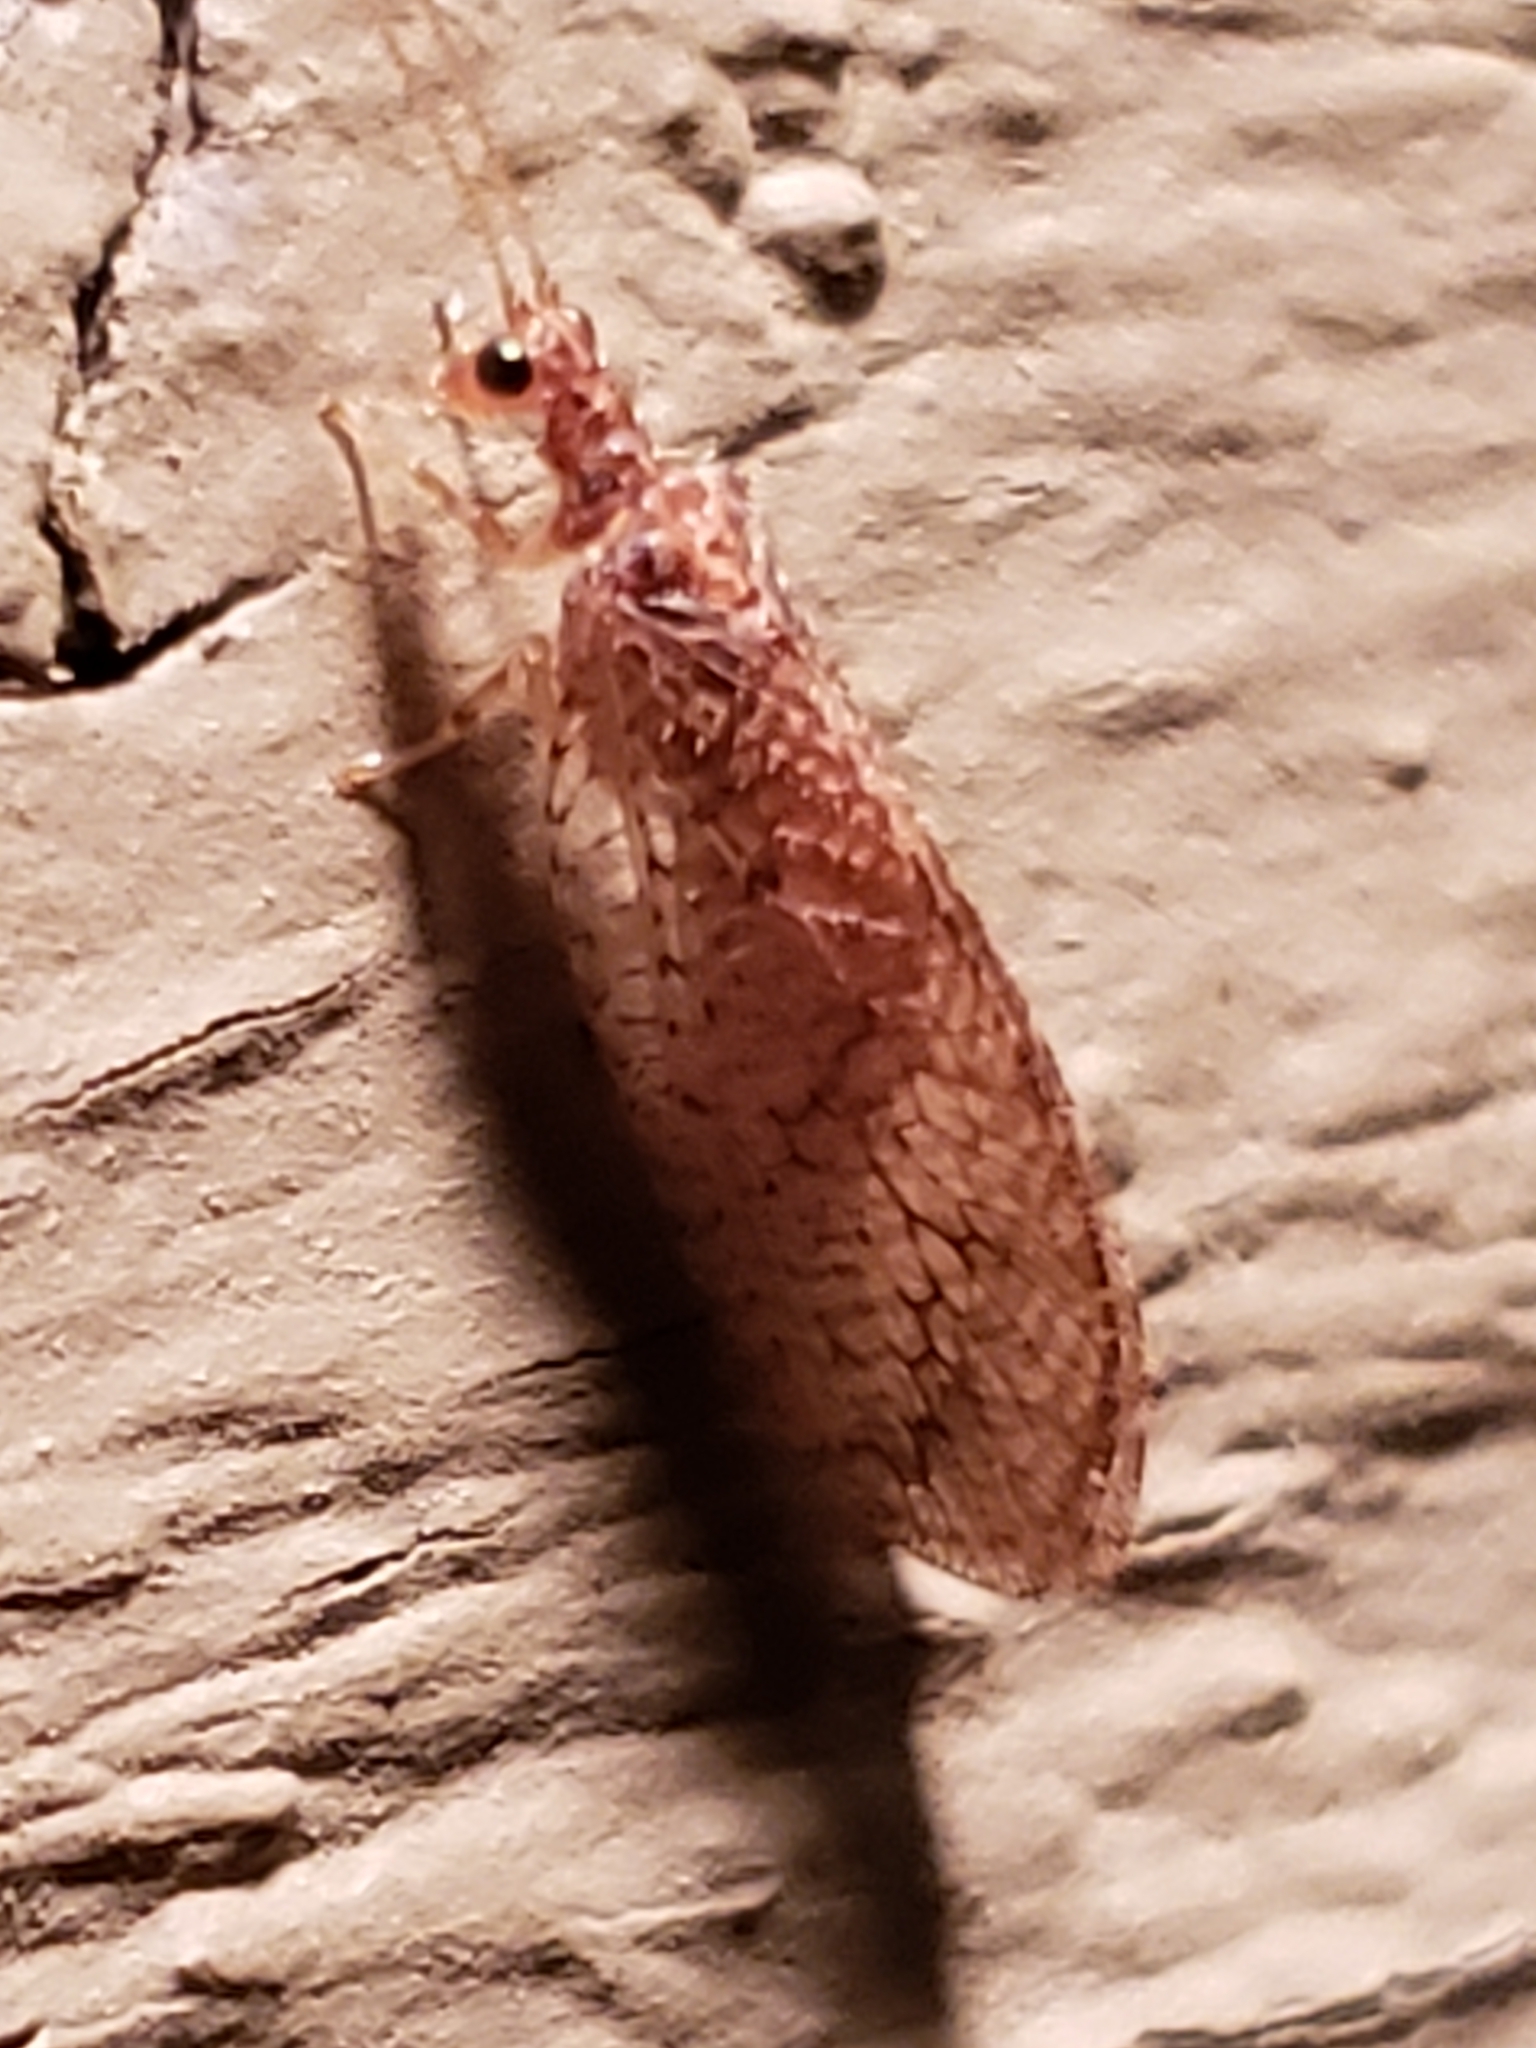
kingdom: Animalia
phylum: Arthropoda
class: Insecta
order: Neuroptera
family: Hemerobiidae
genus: Micromus
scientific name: Micromus posticus
